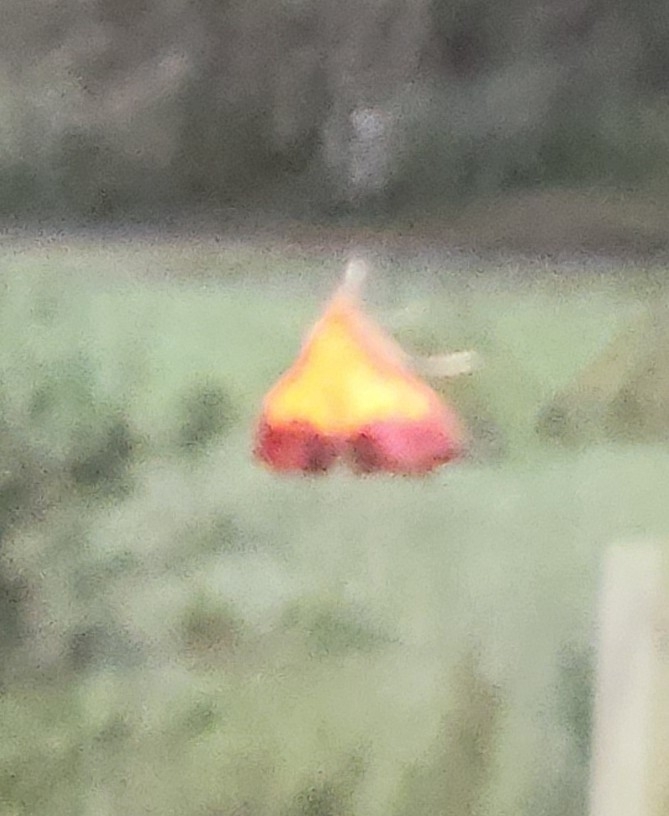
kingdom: Animalia
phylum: Arthropoda
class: Insecta
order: Lepidoptera
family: Crambidae
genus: Pyrausta
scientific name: Pyrausta bicoloralis
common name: Bicolored pyrausta moth
